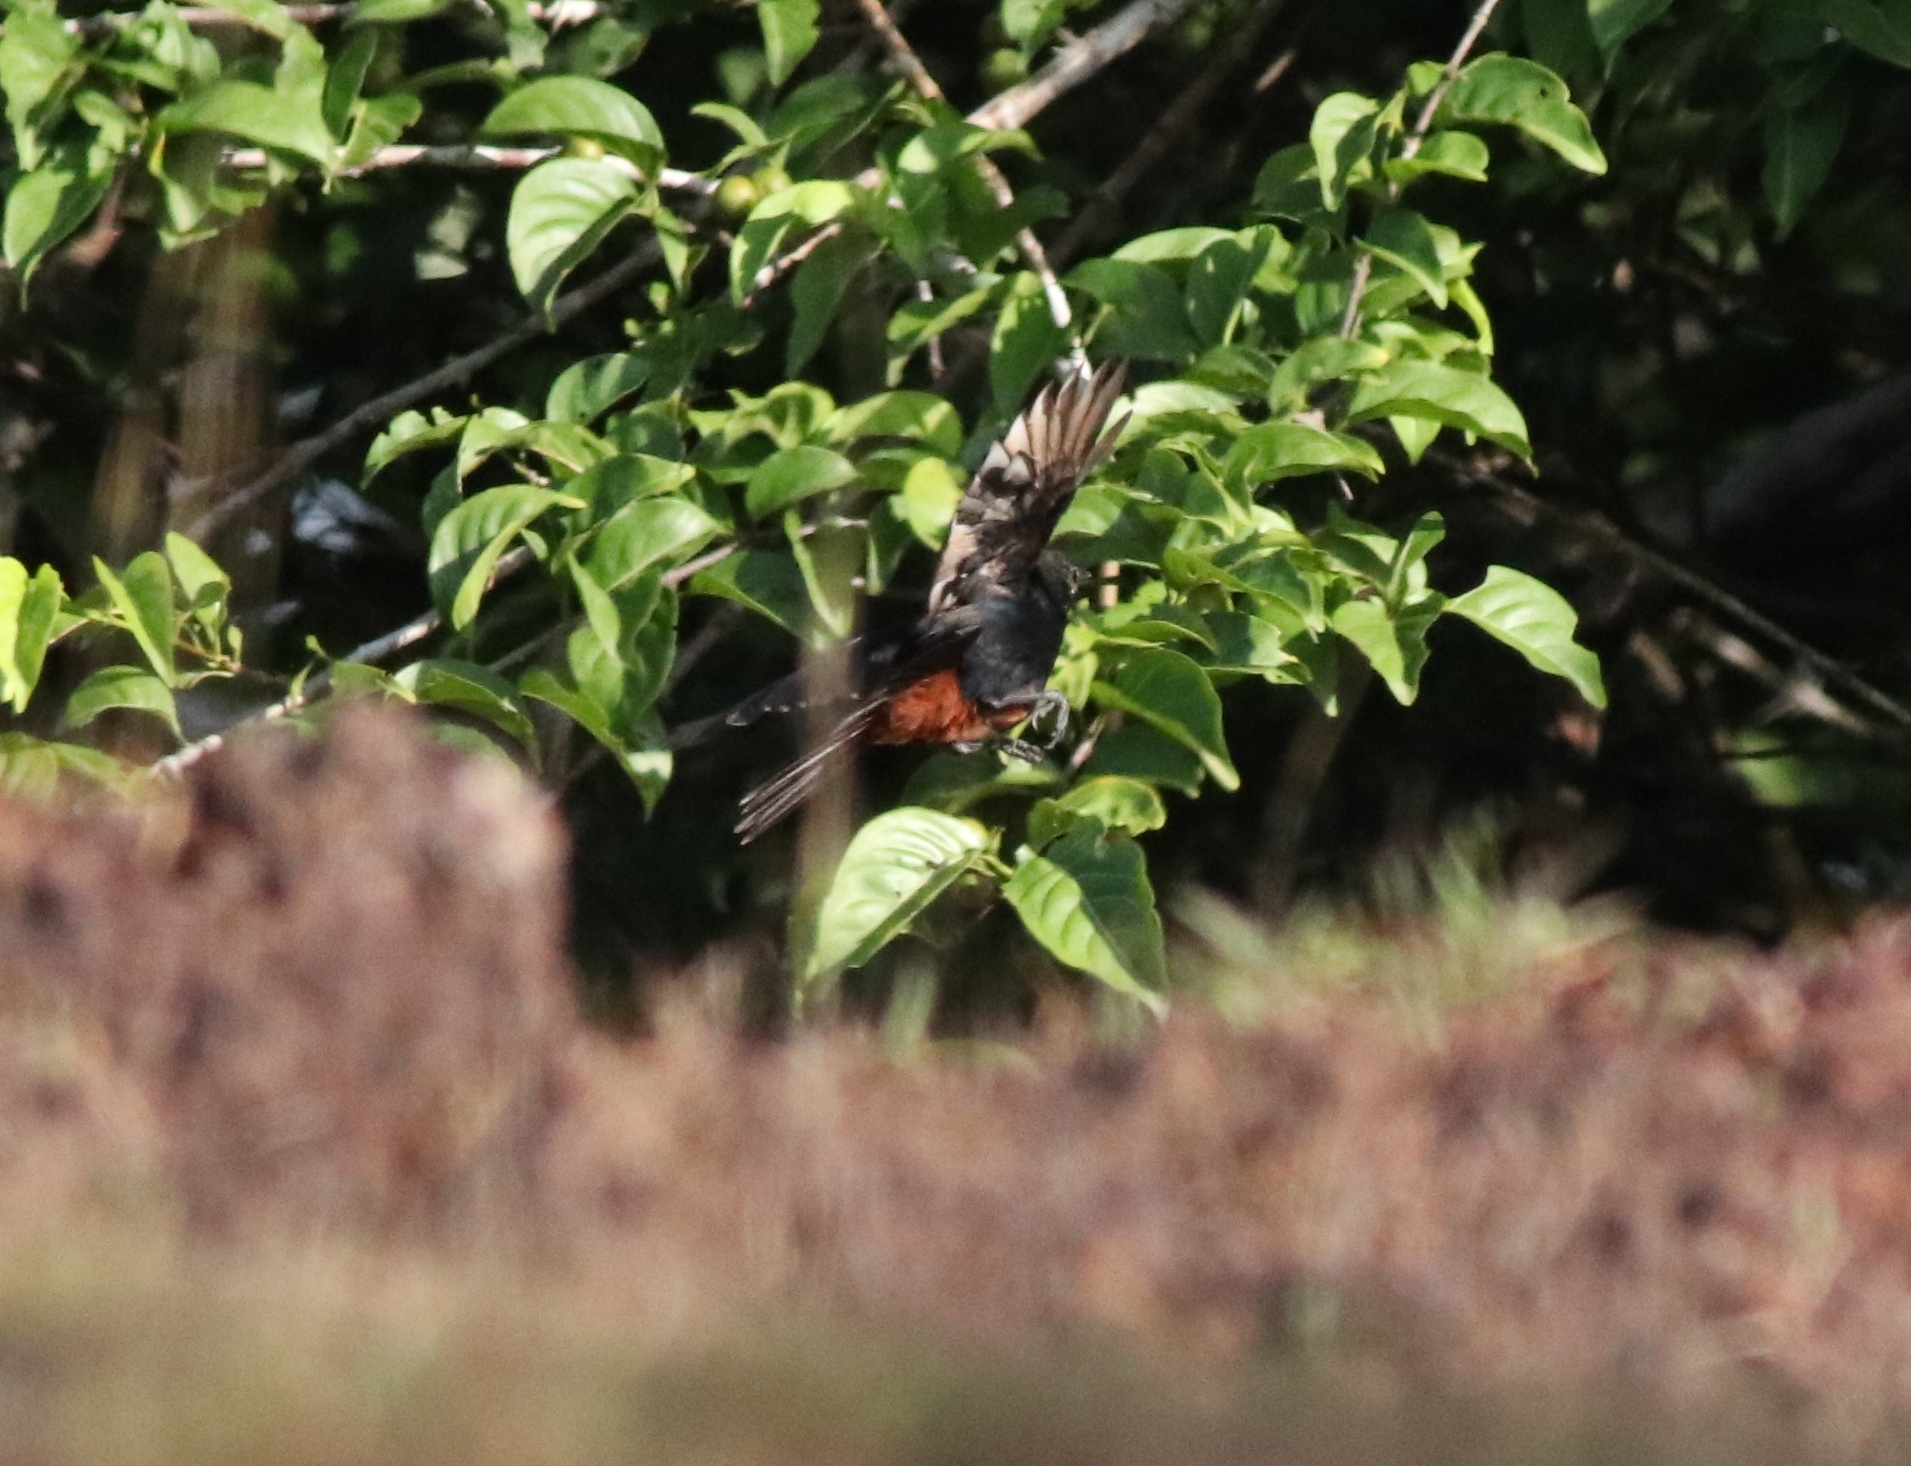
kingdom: Animalia
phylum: Chordata
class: Aves
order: Passeriformes
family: Muscicapidae
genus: Saxicoloides
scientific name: Saxicoloides fulicatus
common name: Indian robin
